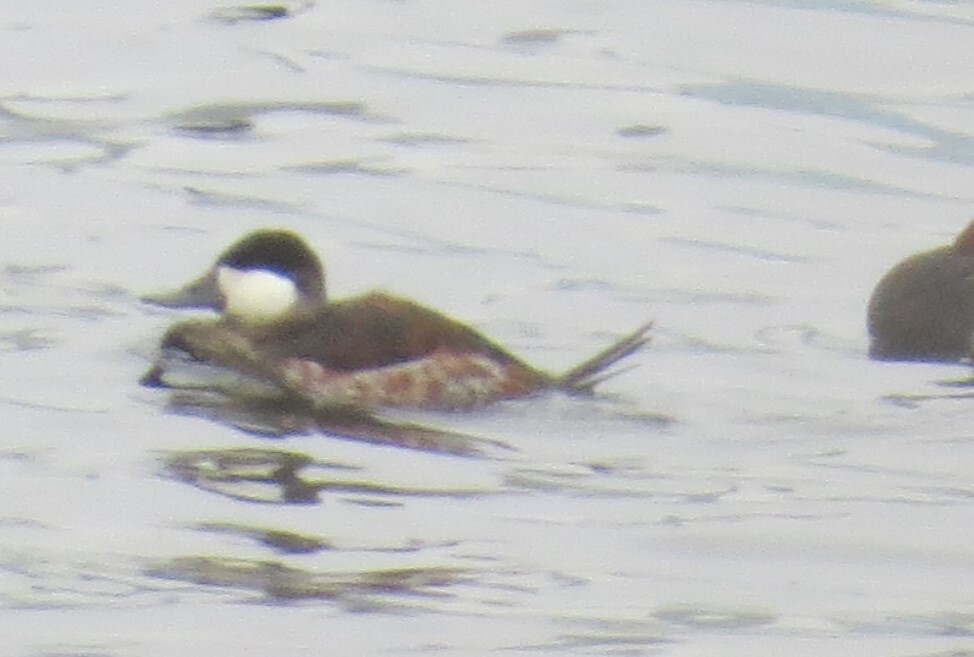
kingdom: Animalia
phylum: Chordata
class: Aves
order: Anseriformes
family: Anatidae
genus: Oxyura
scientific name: Oxyura jamaicensis
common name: Ruddy duck
